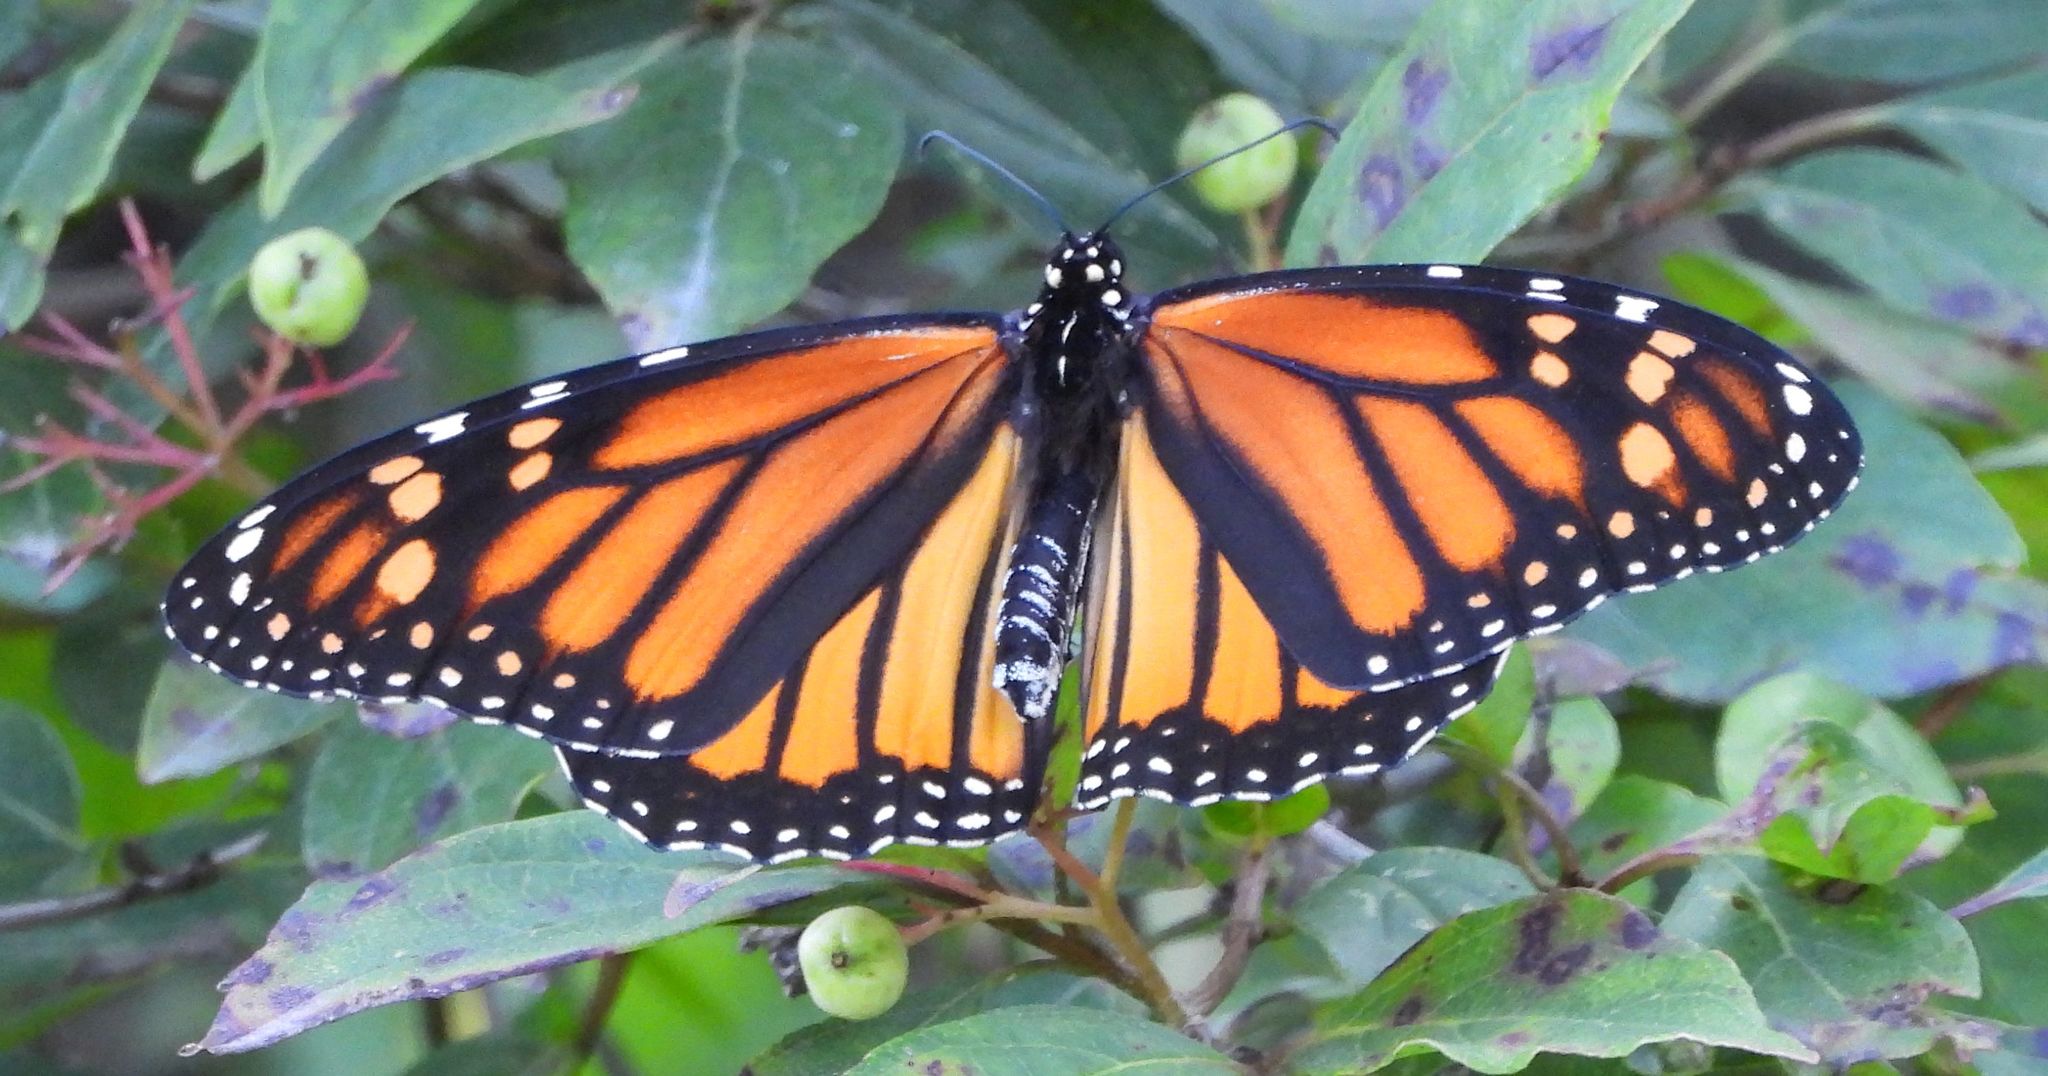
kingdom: Animalia
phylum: Arthropoda
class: Insecta
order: Lepidoptera
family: Nymphalidae
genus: Danaus
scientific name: Danaus plexippus
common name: Monarch
